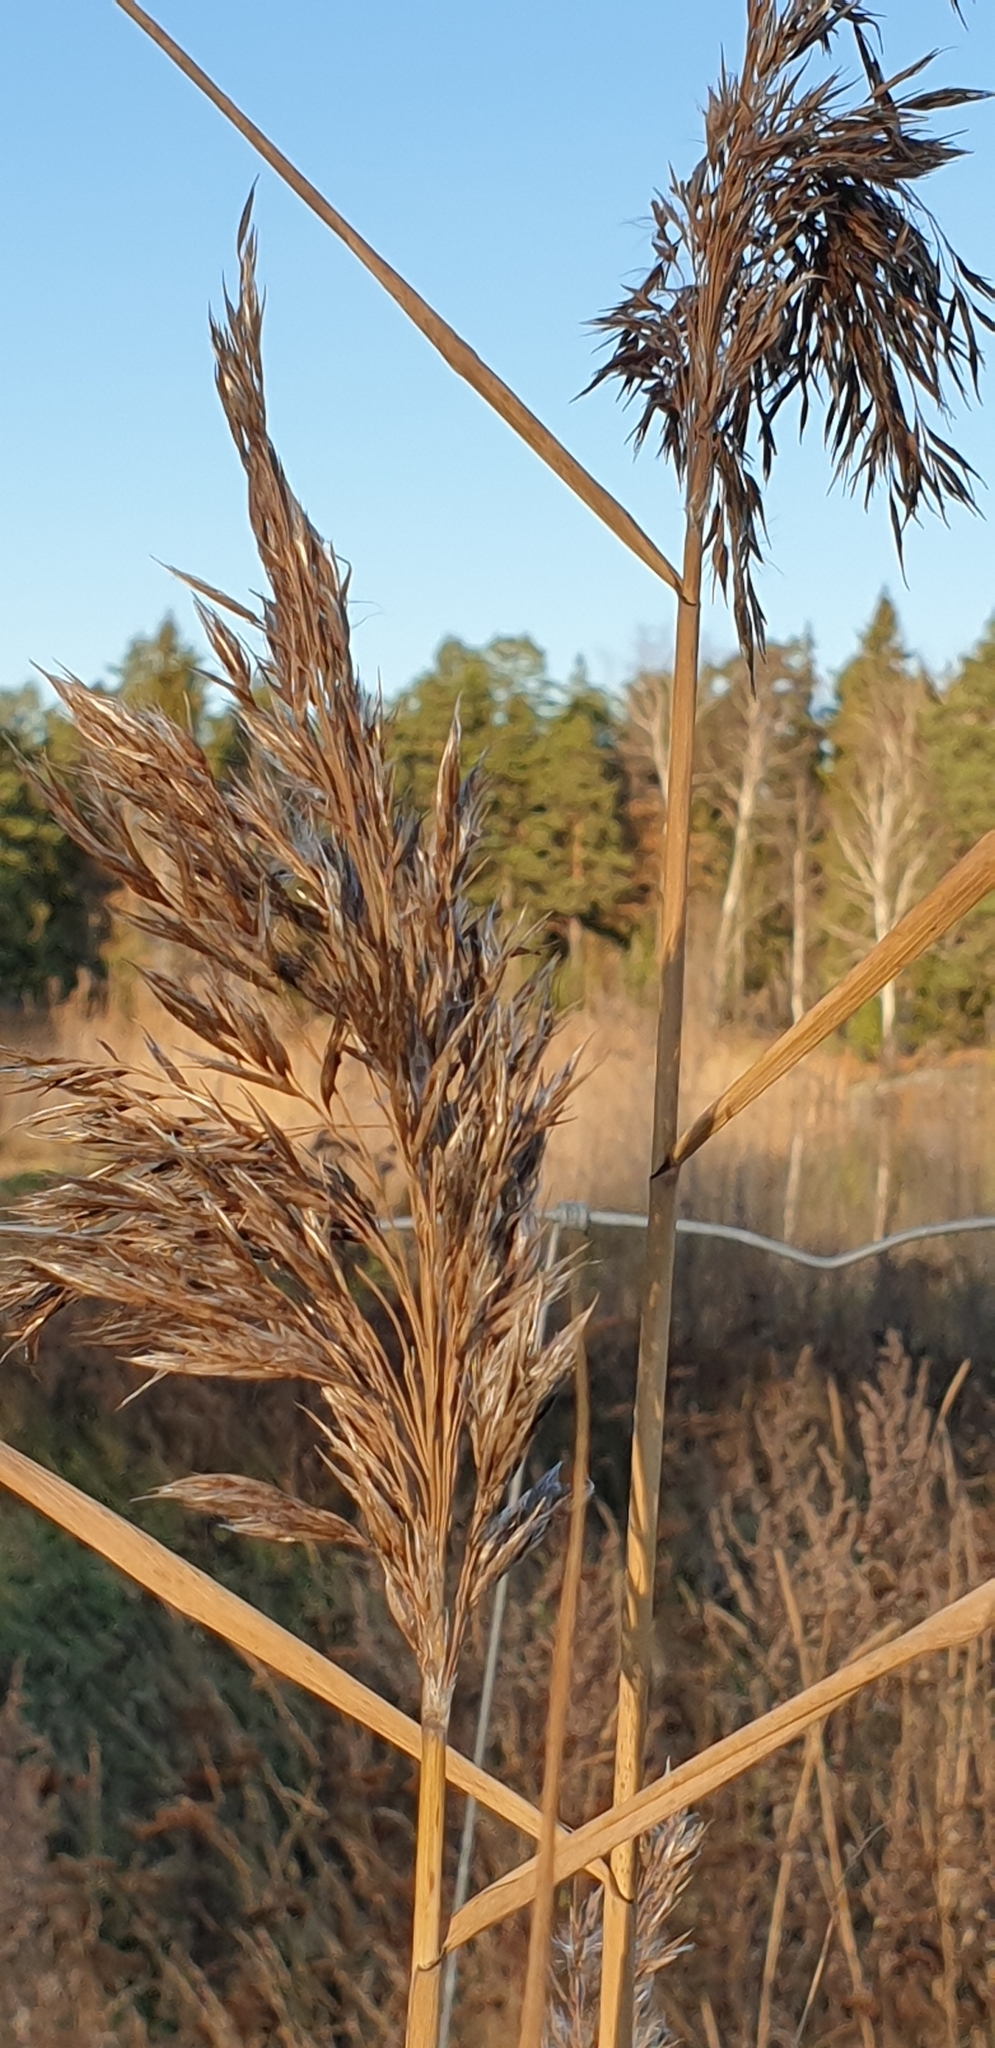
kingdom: Plantae
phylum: Tracheophyta
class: Liliopsida
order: Poales
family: Poaceae
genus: Phragmites
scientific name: Phragmites australis
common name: Common reed
